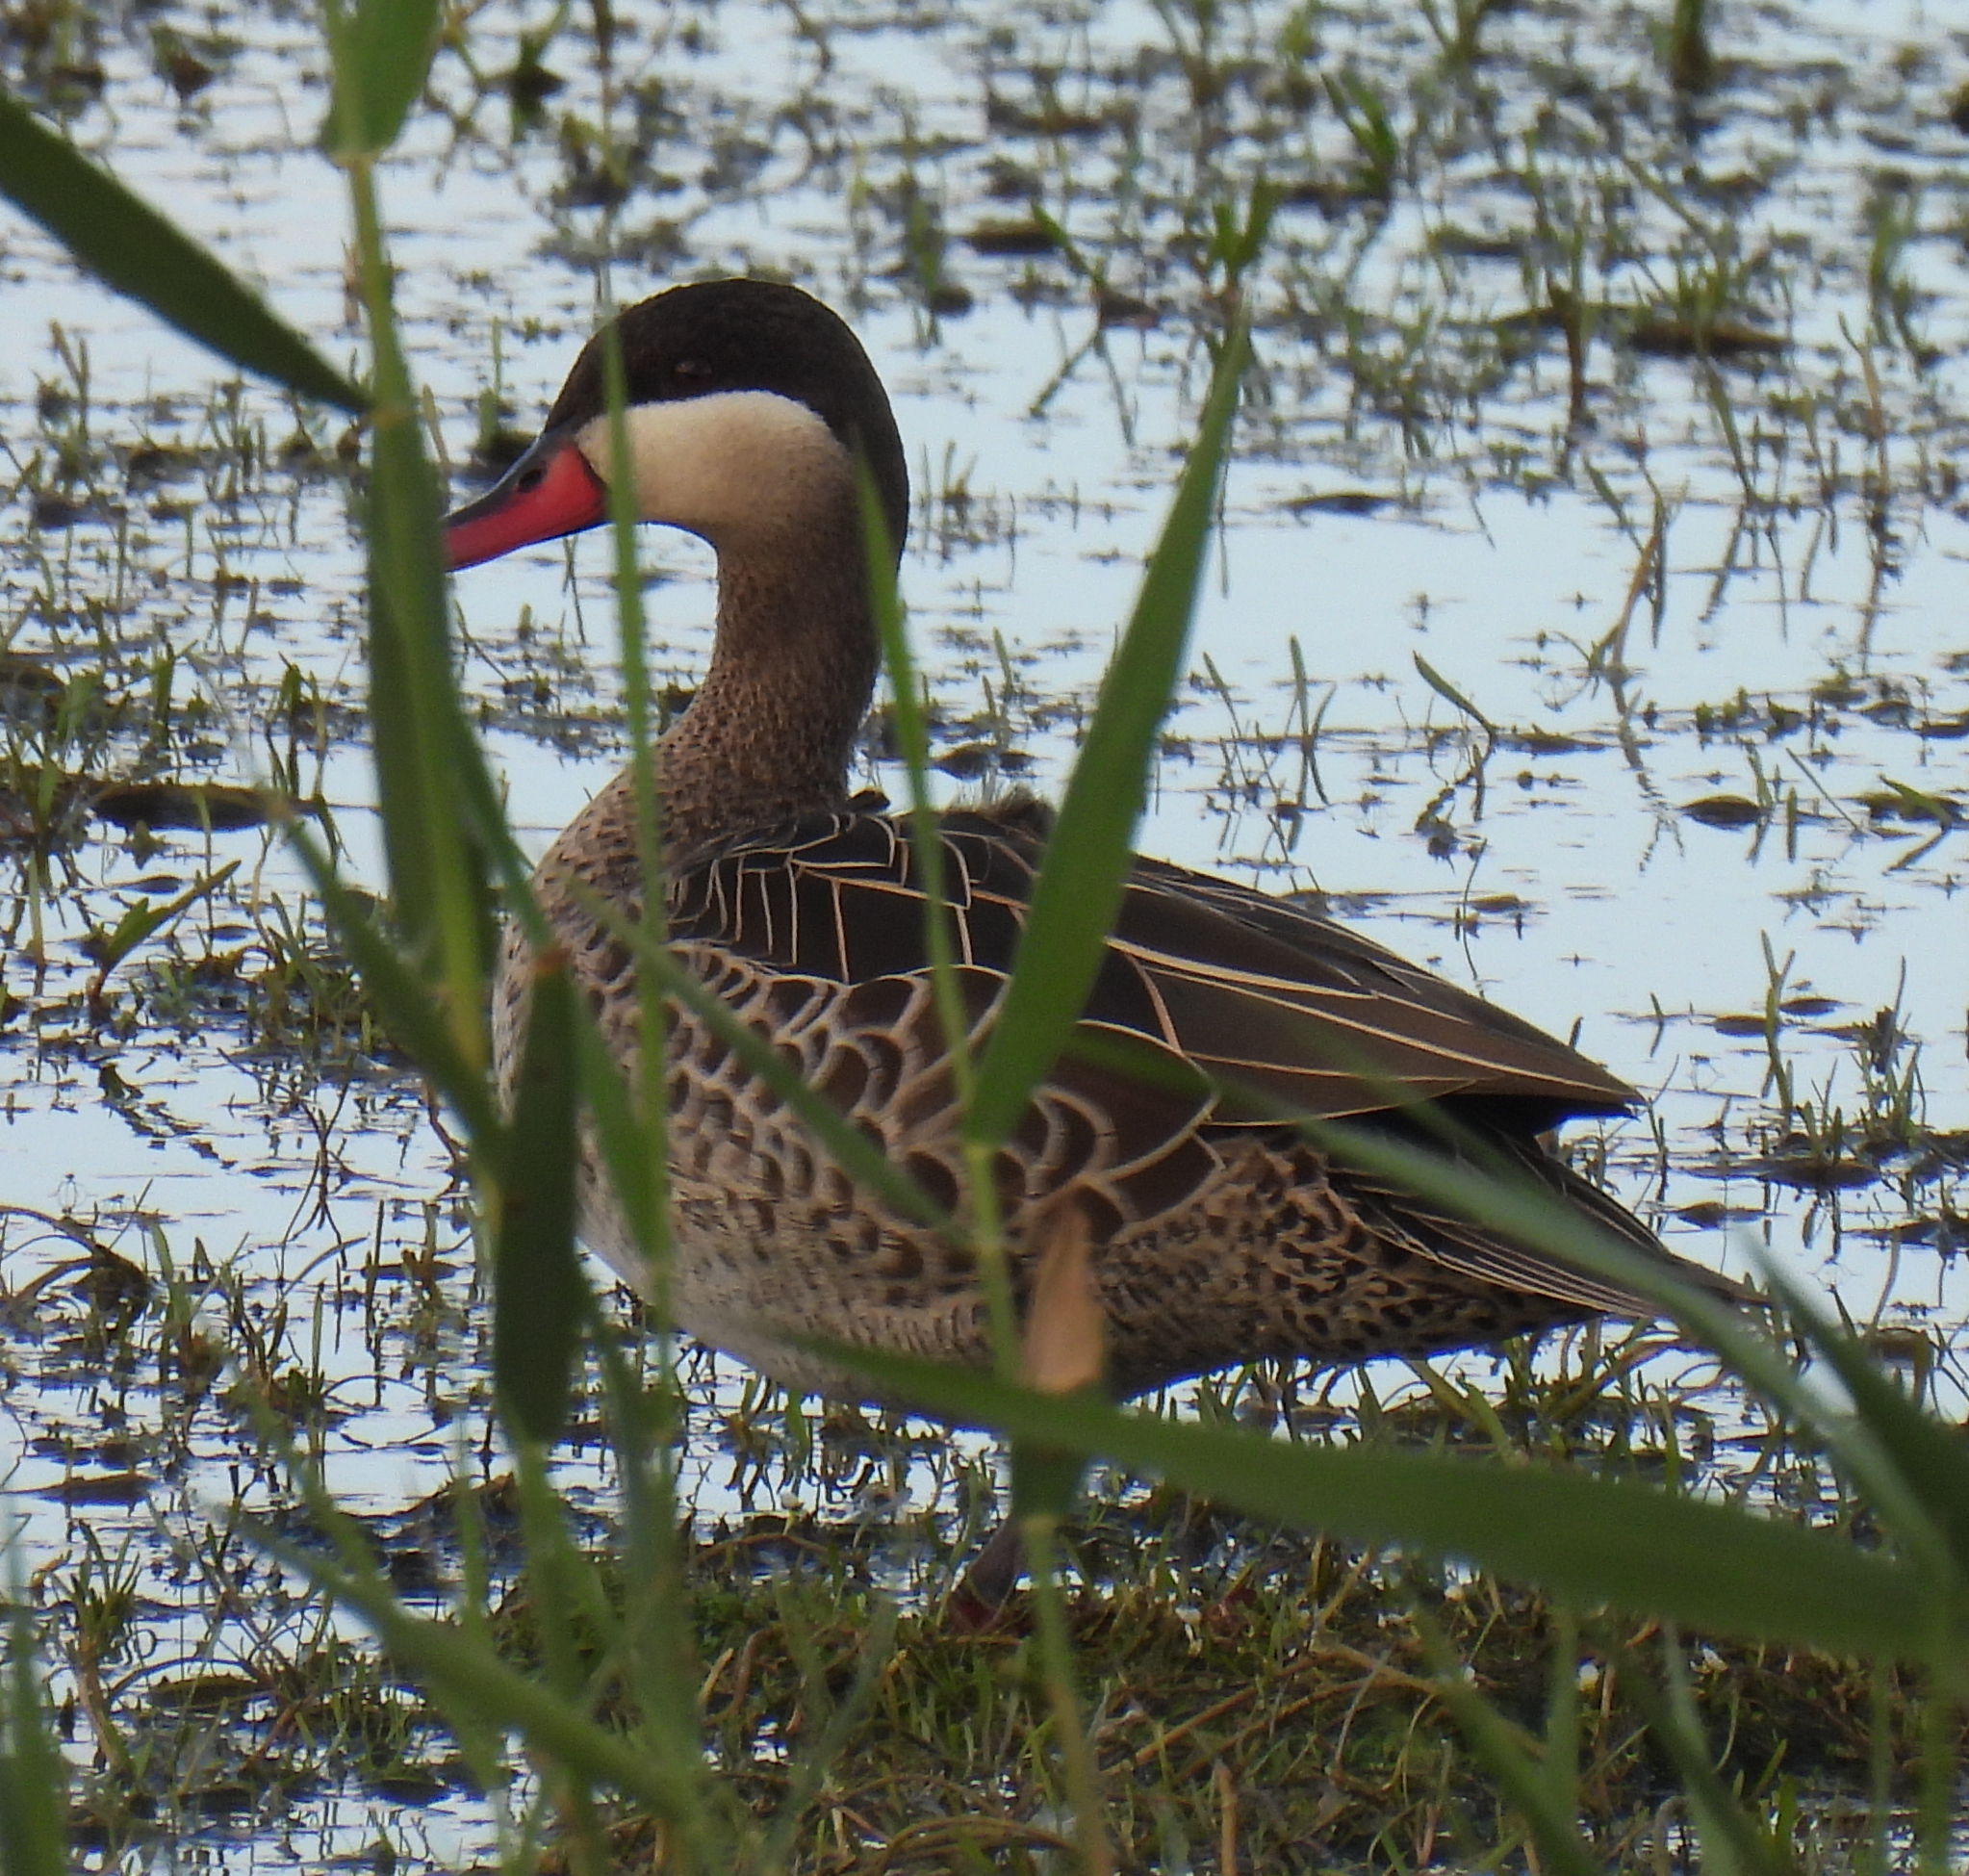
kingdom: Animalia
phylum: Chordata
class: Aves
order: Anseriformes
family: Anatidae
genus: Anas
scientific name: Anas erythrorhyncha
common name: Red-billed teal
